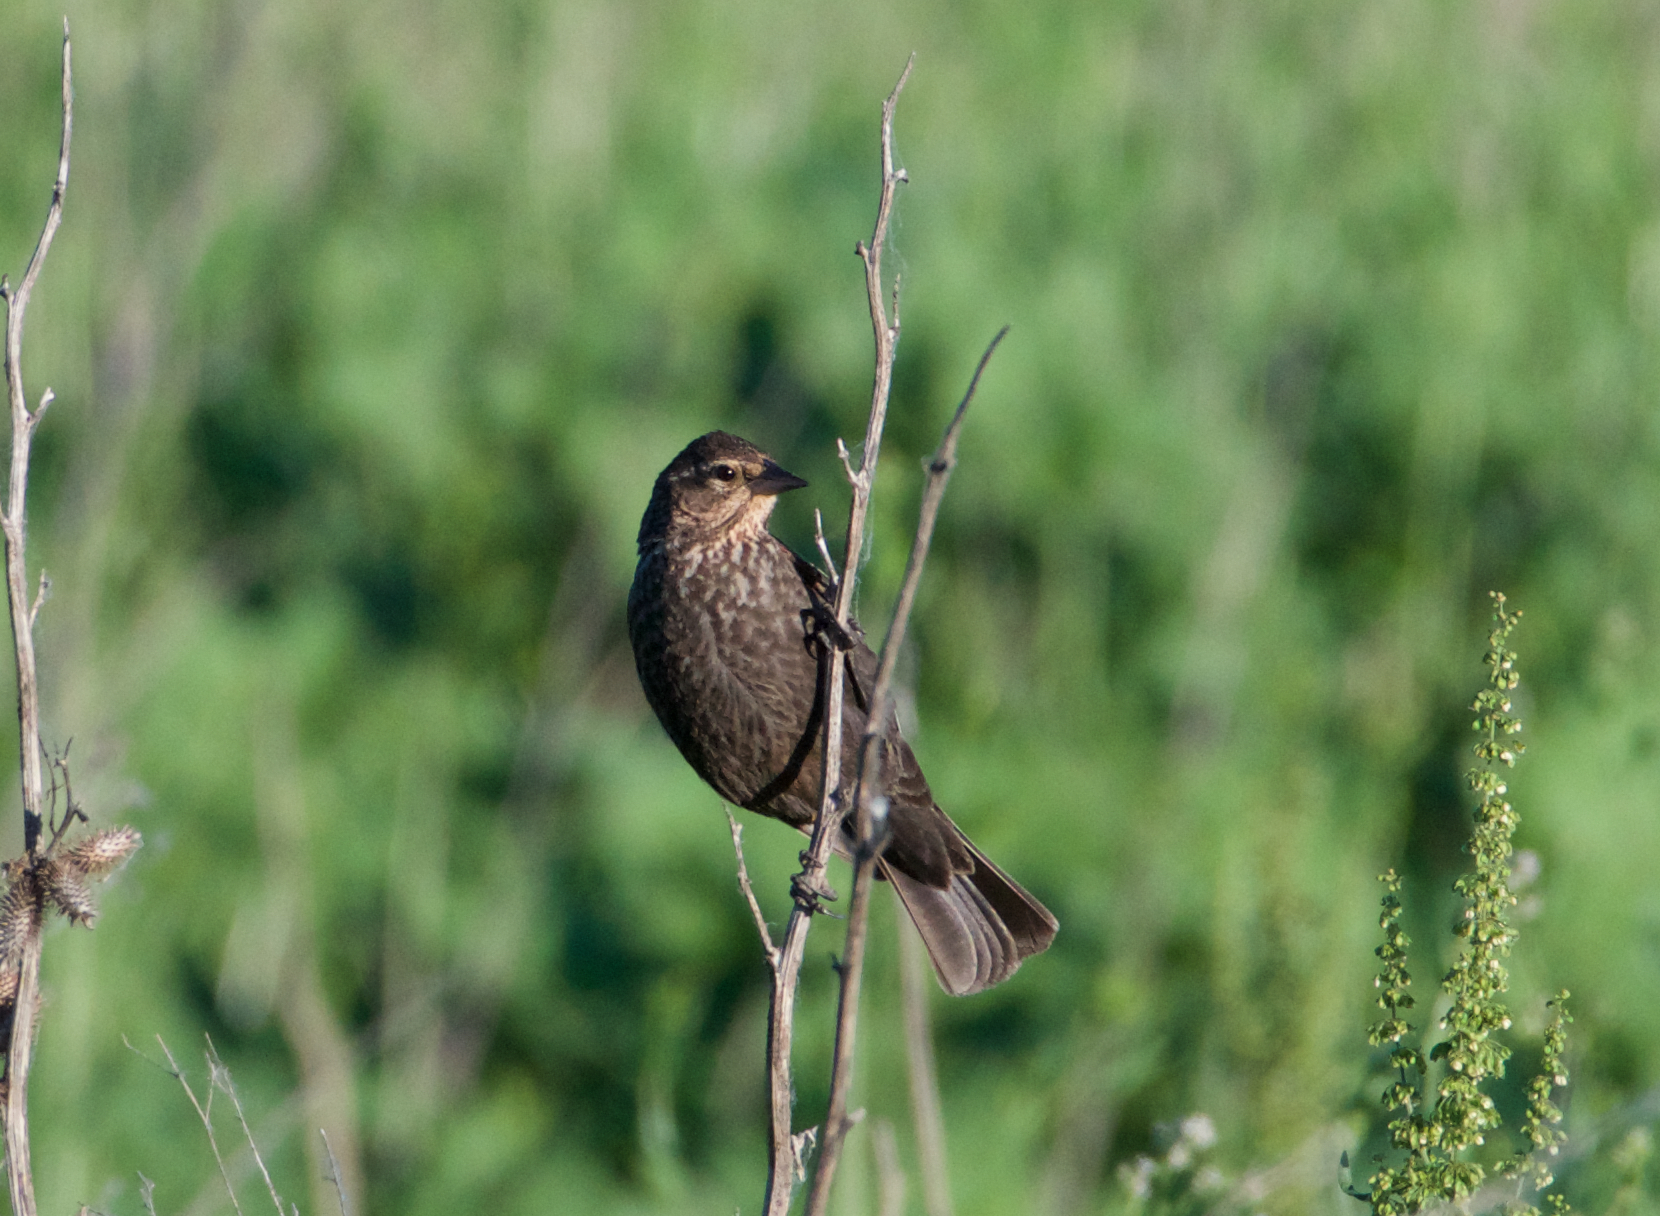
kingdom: Animalia
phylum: Chordata
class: Aves
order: Passeriformes
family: Icteridae
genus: Agelaius
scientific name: Agelaius phoeniceus
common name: Red-winged blackbird
